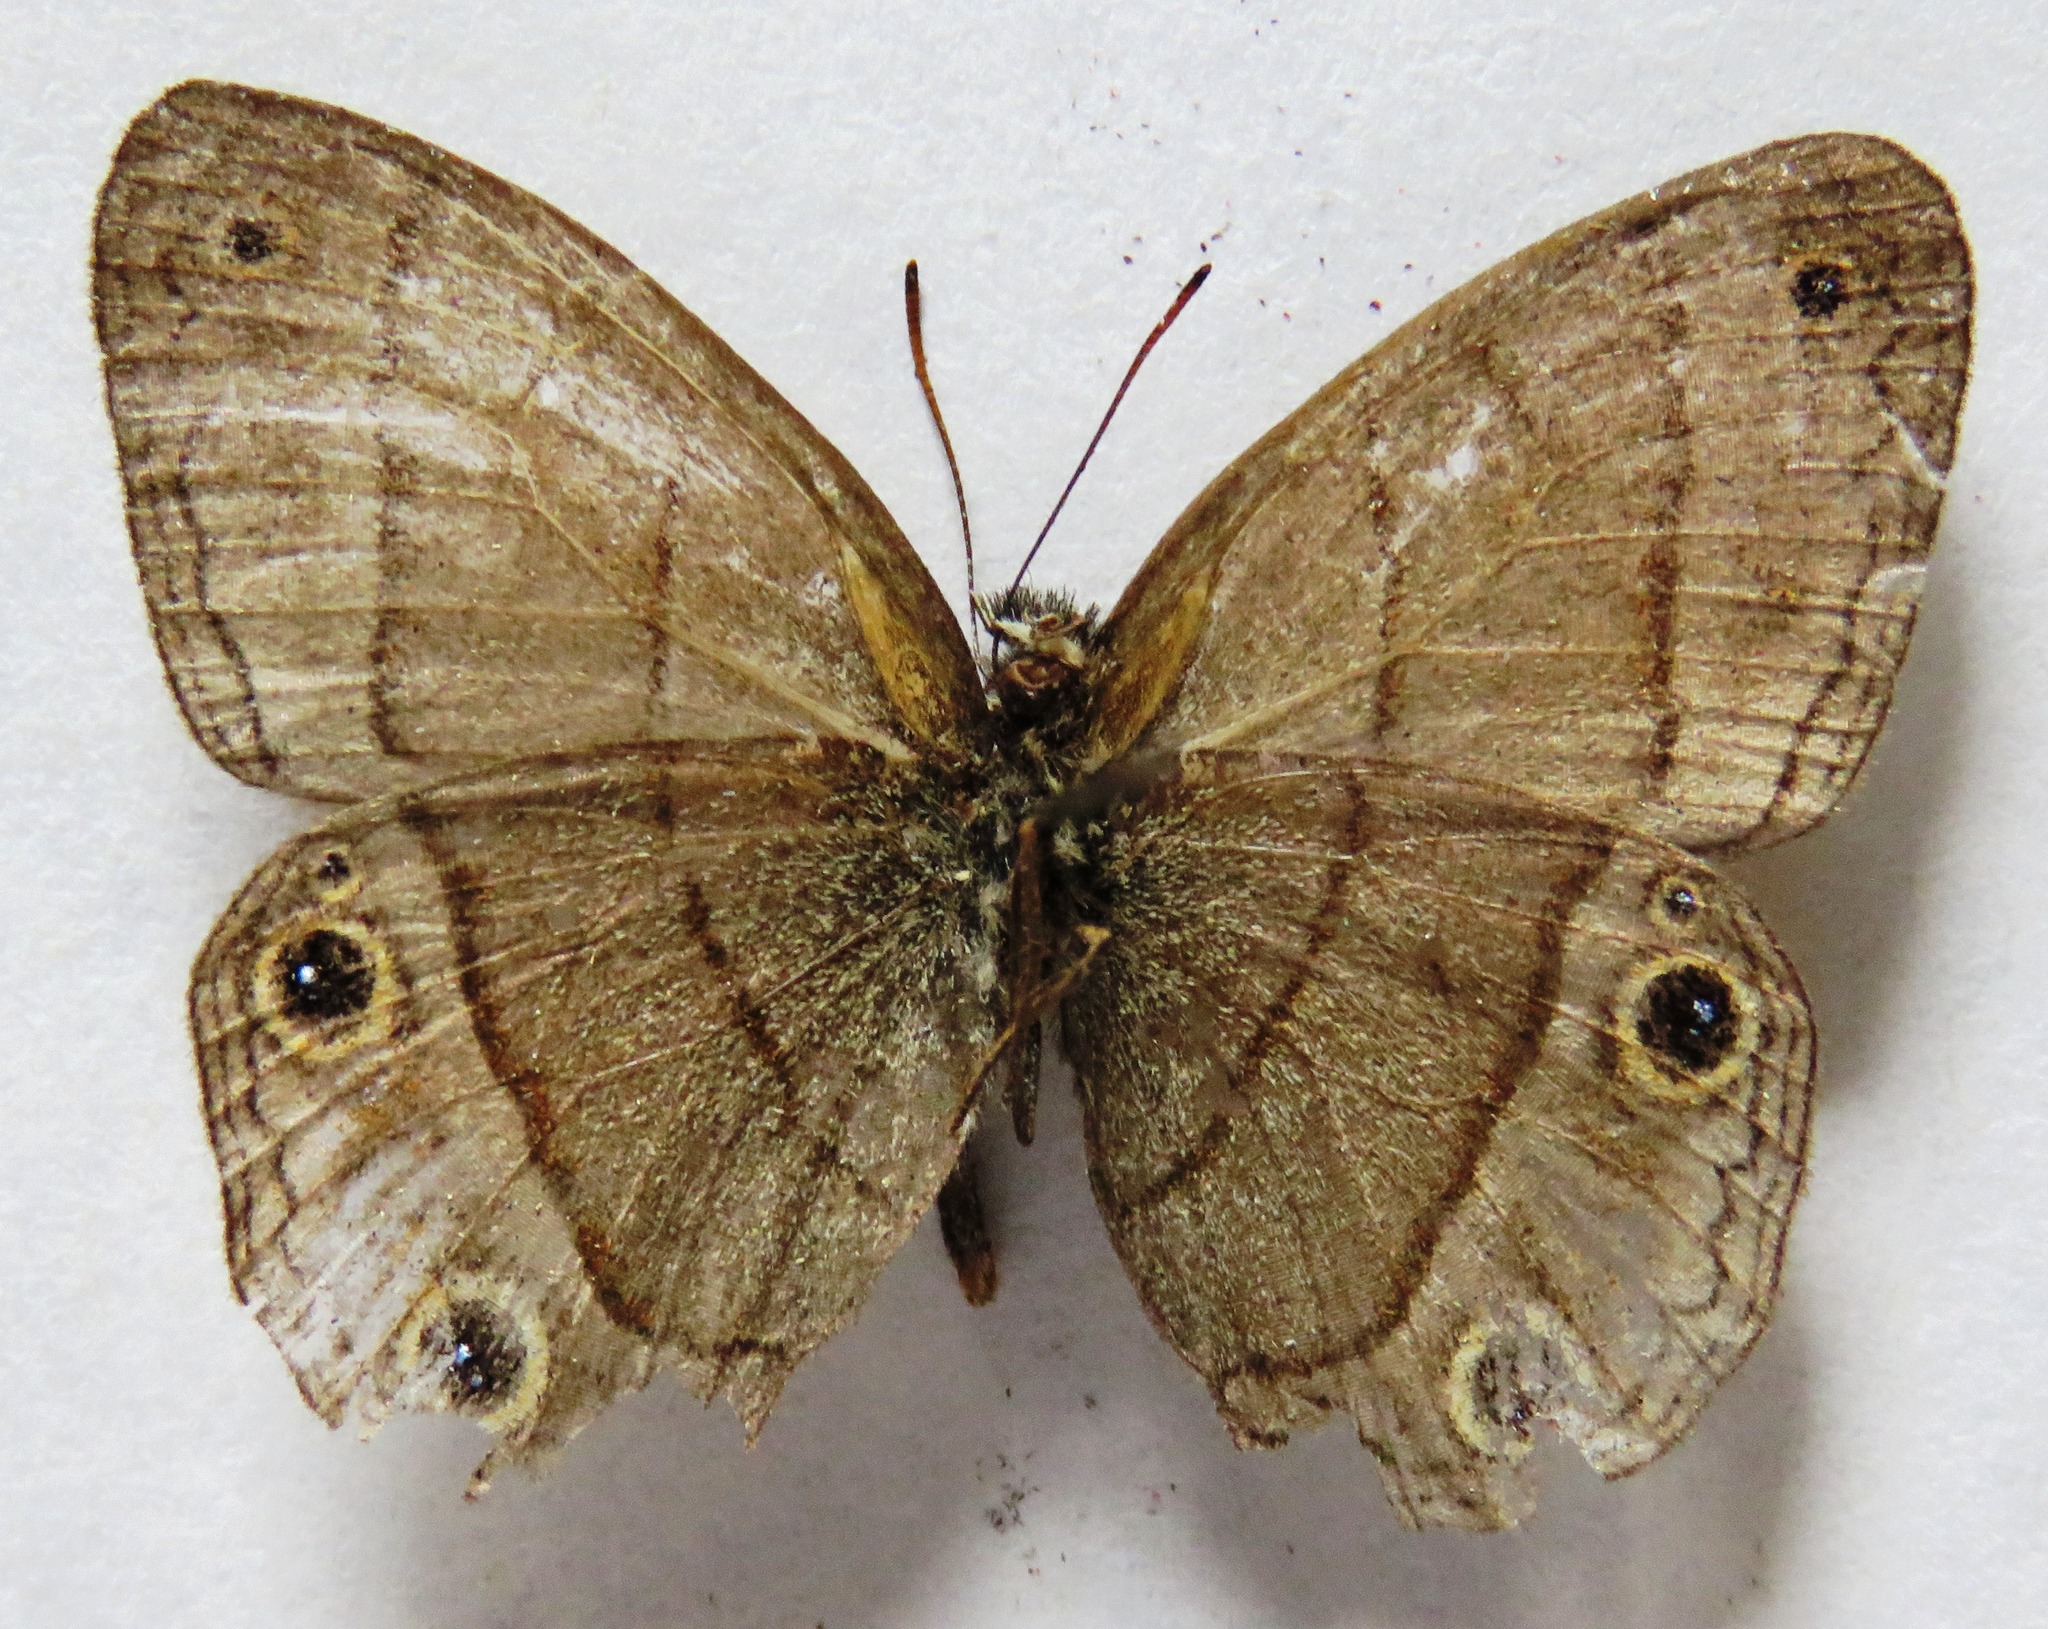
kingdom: Animalia
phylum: Arthropoda
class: Insecta
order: Lepidoptera
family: Nymphalidae
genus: Euptychia
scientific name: Euptychia Cissia pompilia
